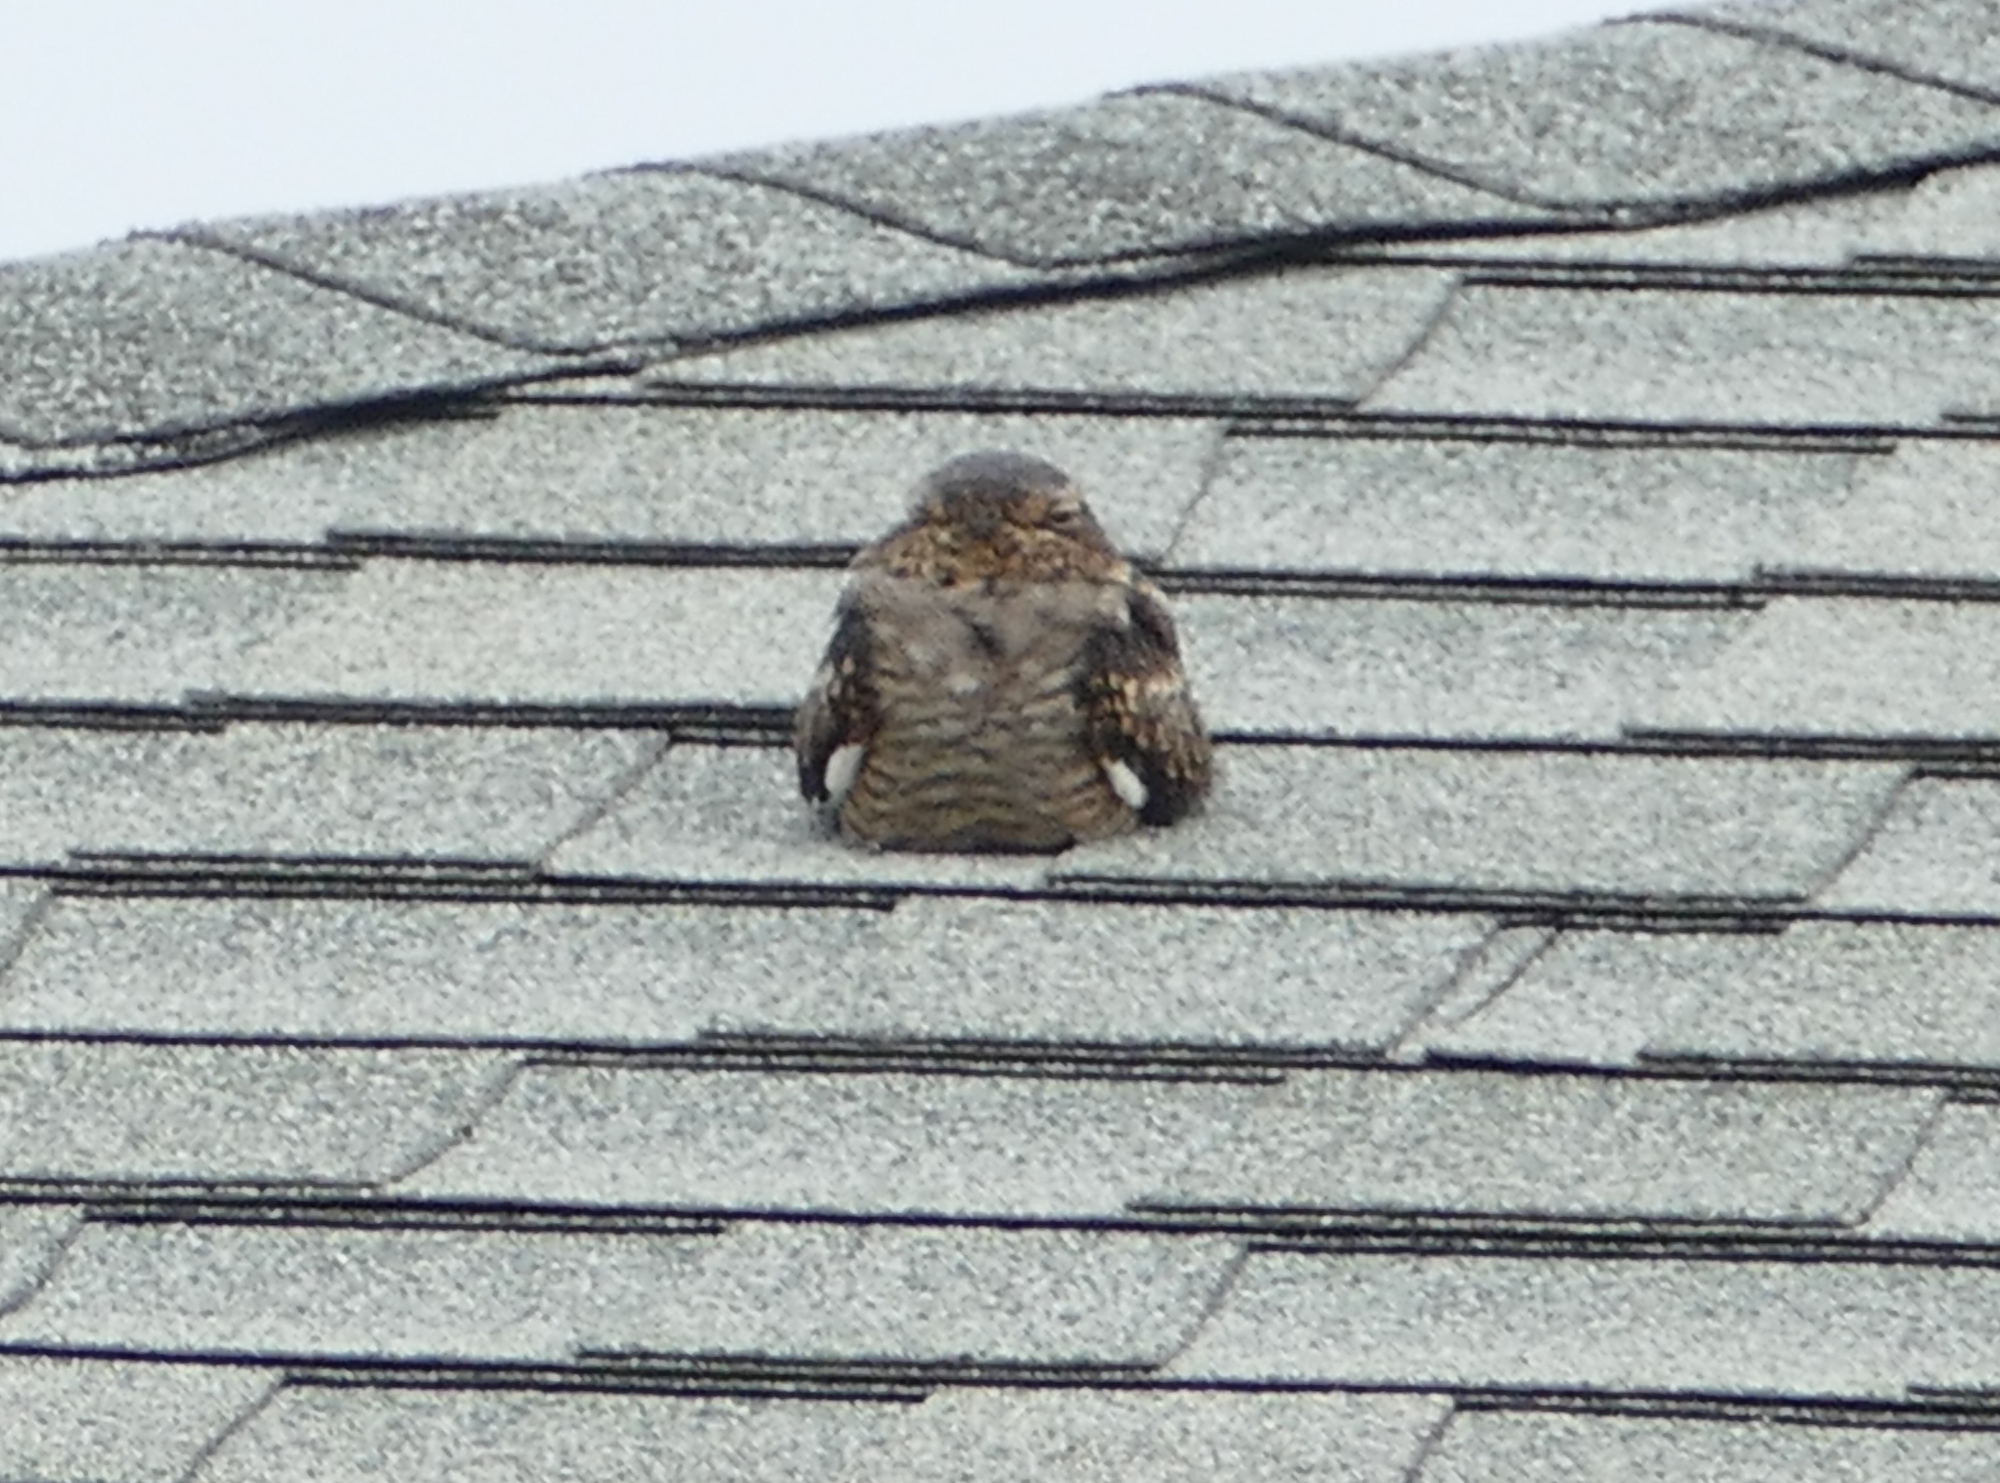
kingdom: Animalia
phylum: Chordata
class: Aves
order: Caprimulgiformes
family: Caprimulgidae
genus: Chordeiles
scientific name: Chordeiles acutipennis
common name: Lesser nighthawk
